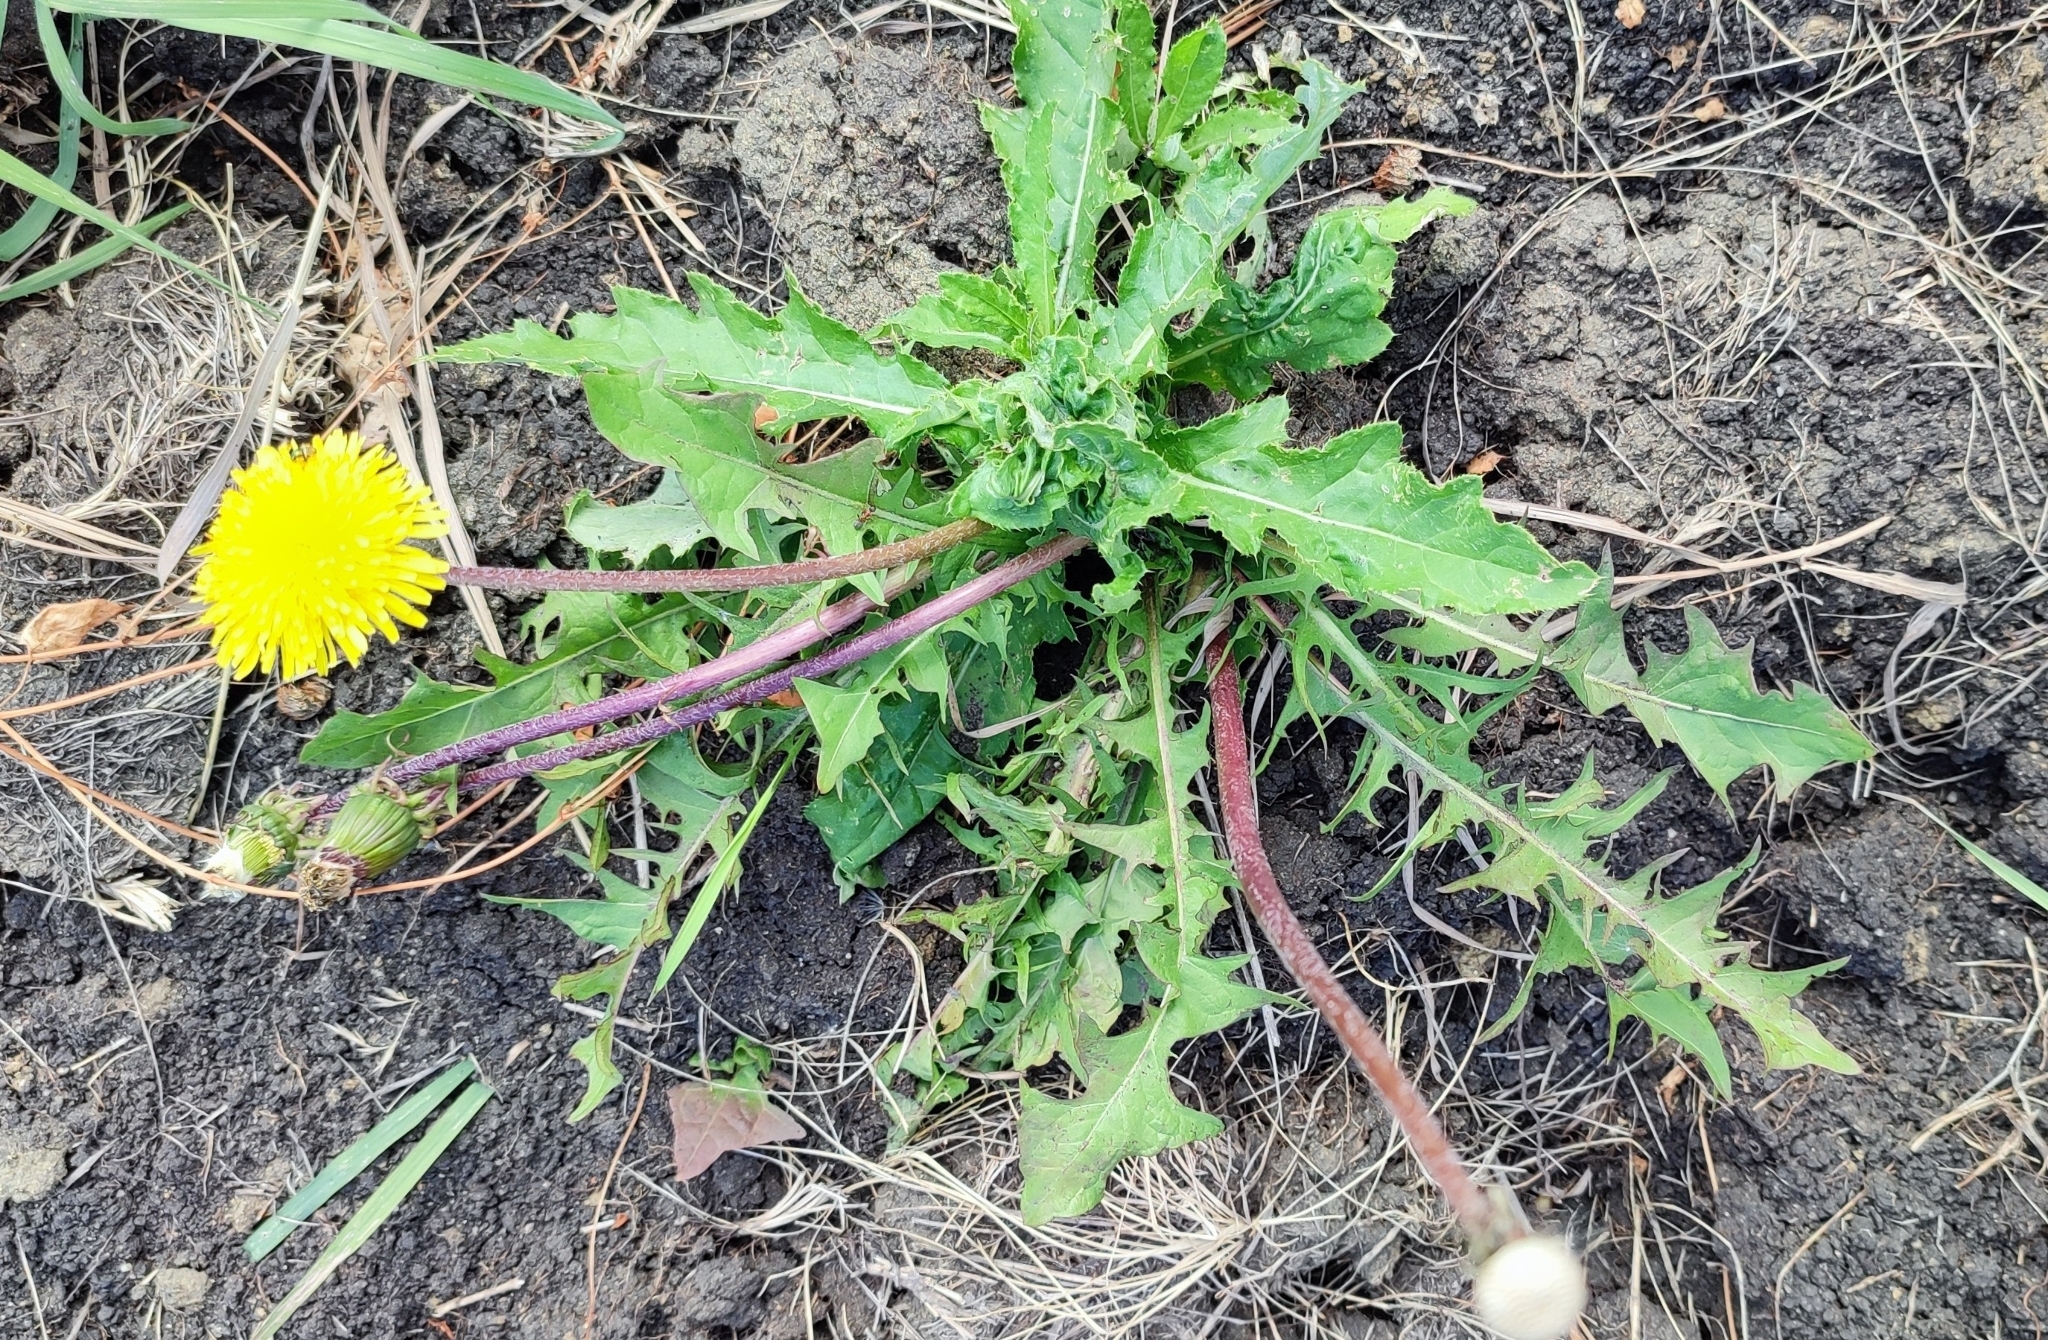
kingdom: Plantae
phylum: Tracheophyta
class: Magnoliopsida
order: Asterales
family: Asteraceae
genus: Taraxacum
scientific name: Taraxacum officinale
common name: Common dandelion
